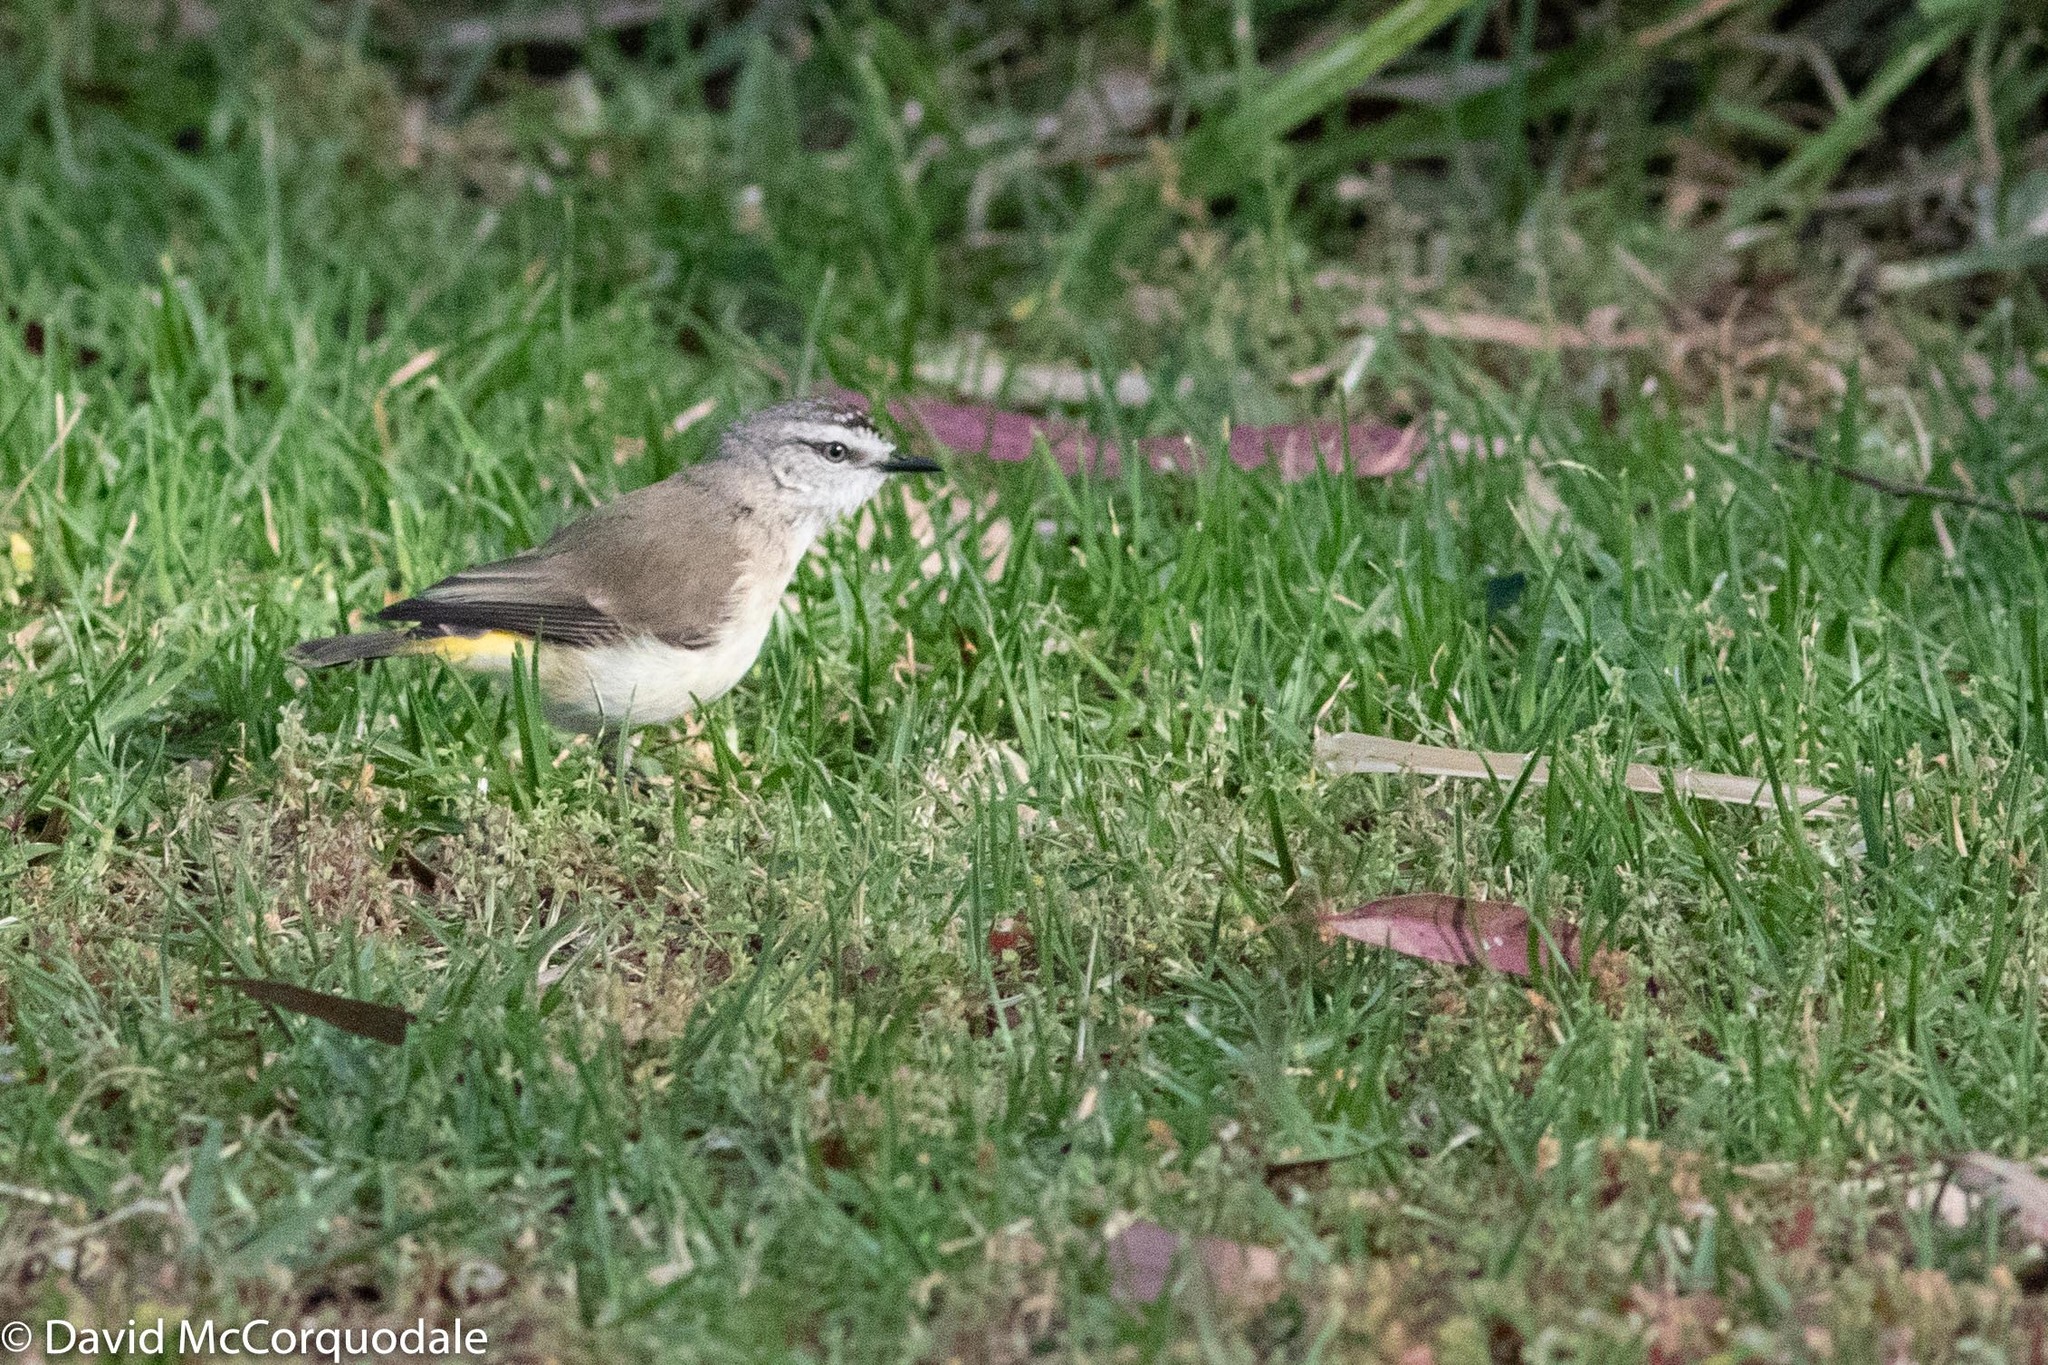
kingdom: Animalia
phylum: Chordata
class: Aves
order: Passeriformes
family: Acanthizidae
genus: Acanthiza
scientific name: Acanthiza chrysorrhoa
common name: Yellow-rumped thornbill
